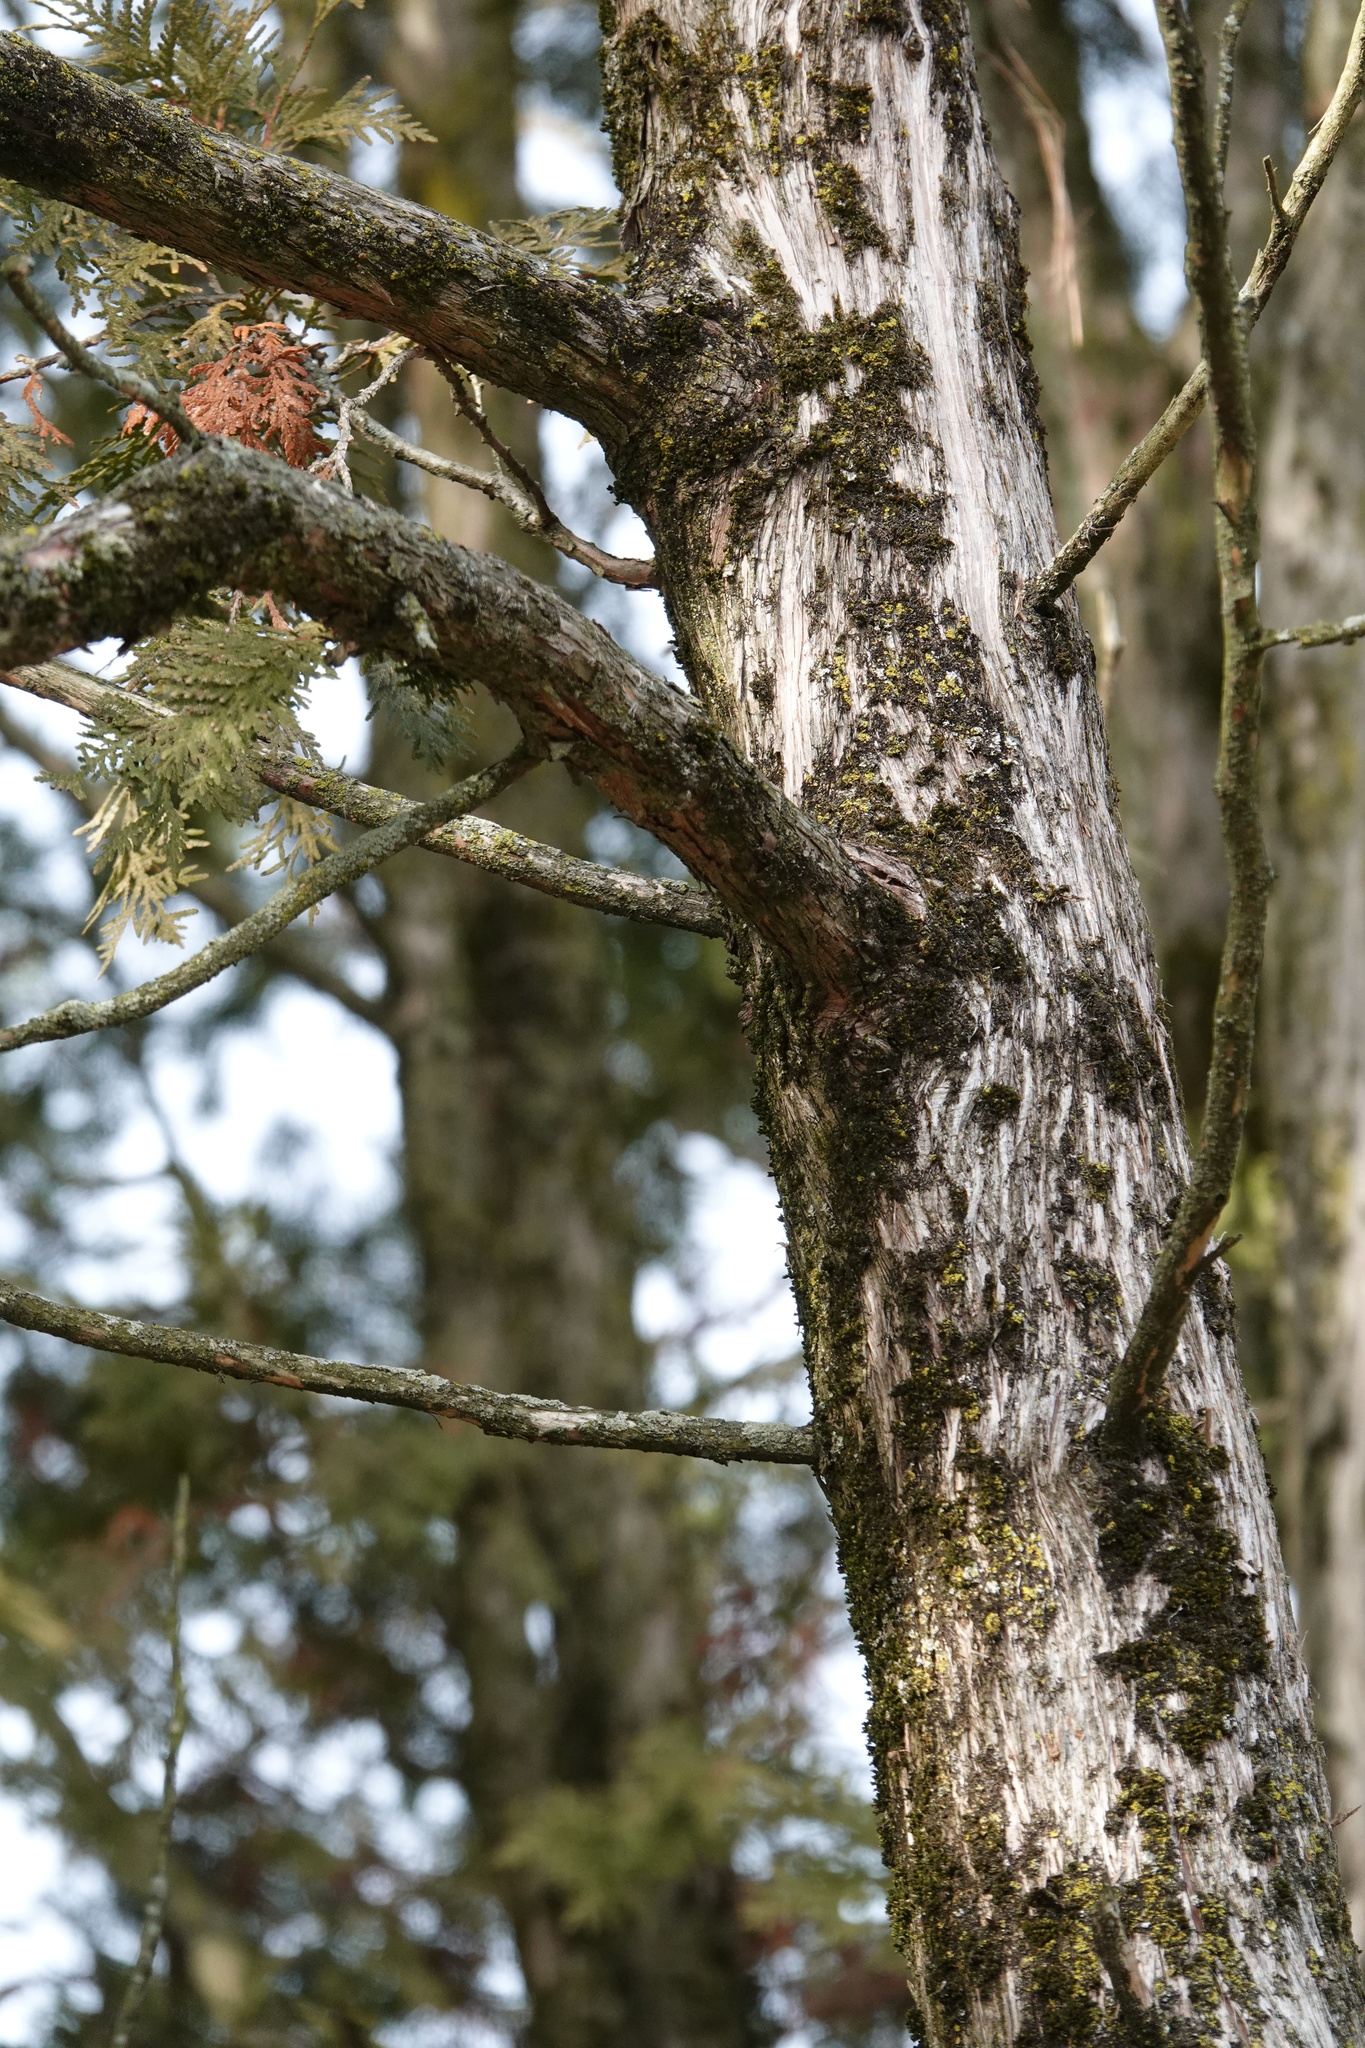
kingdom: Plantae
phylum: Tracheophyta
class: Pinopsida
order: Pinales
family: Cupressaceae
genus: Thuja
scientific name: Thuja occidentalis
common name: Northern white-cedar
